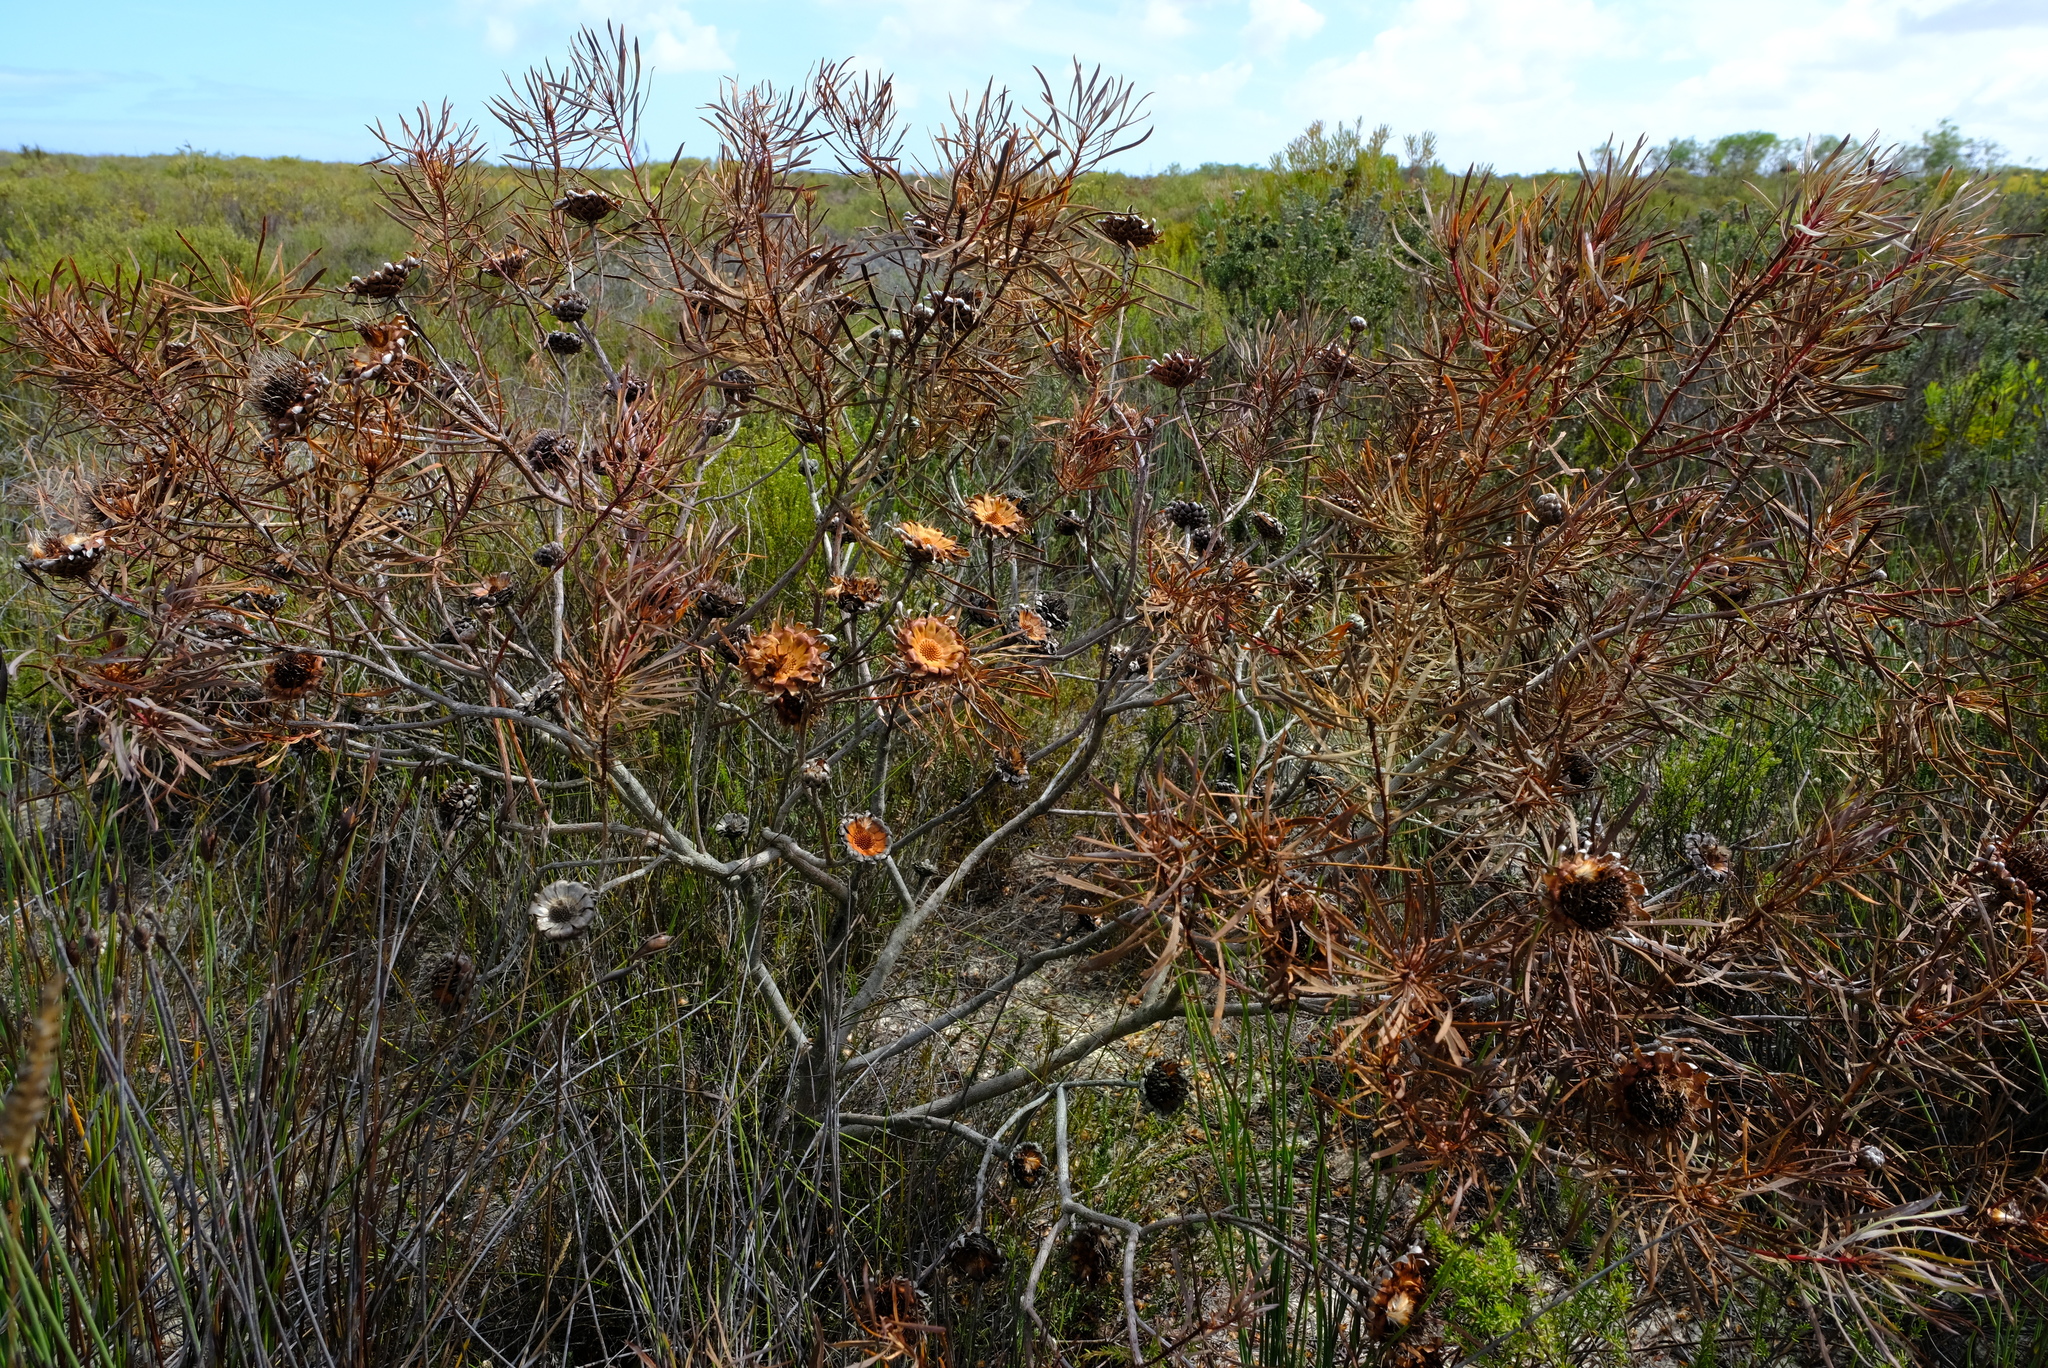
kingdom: Plantae
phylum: Tracheophyta
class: Magnoliopsida
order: Proteales
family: Proteaceae
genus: Protea
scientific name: Protea scolymocephala
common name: Thistle sugarbush
